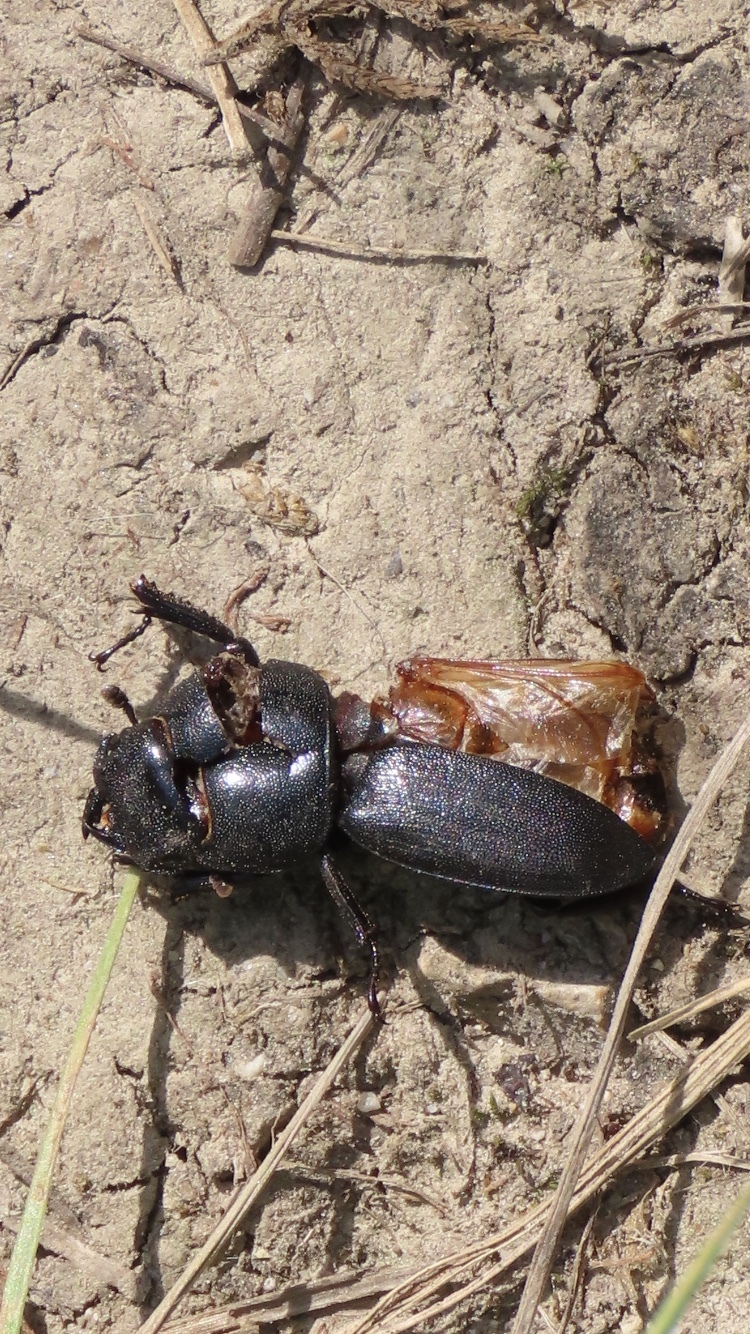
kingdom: Animalia
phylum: Arthropoda
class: Insecta
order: Coleoptera
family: Lucanidae
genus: Dorcus
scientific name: Dorcus parallelipipedus
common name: Lesser stag beetle
